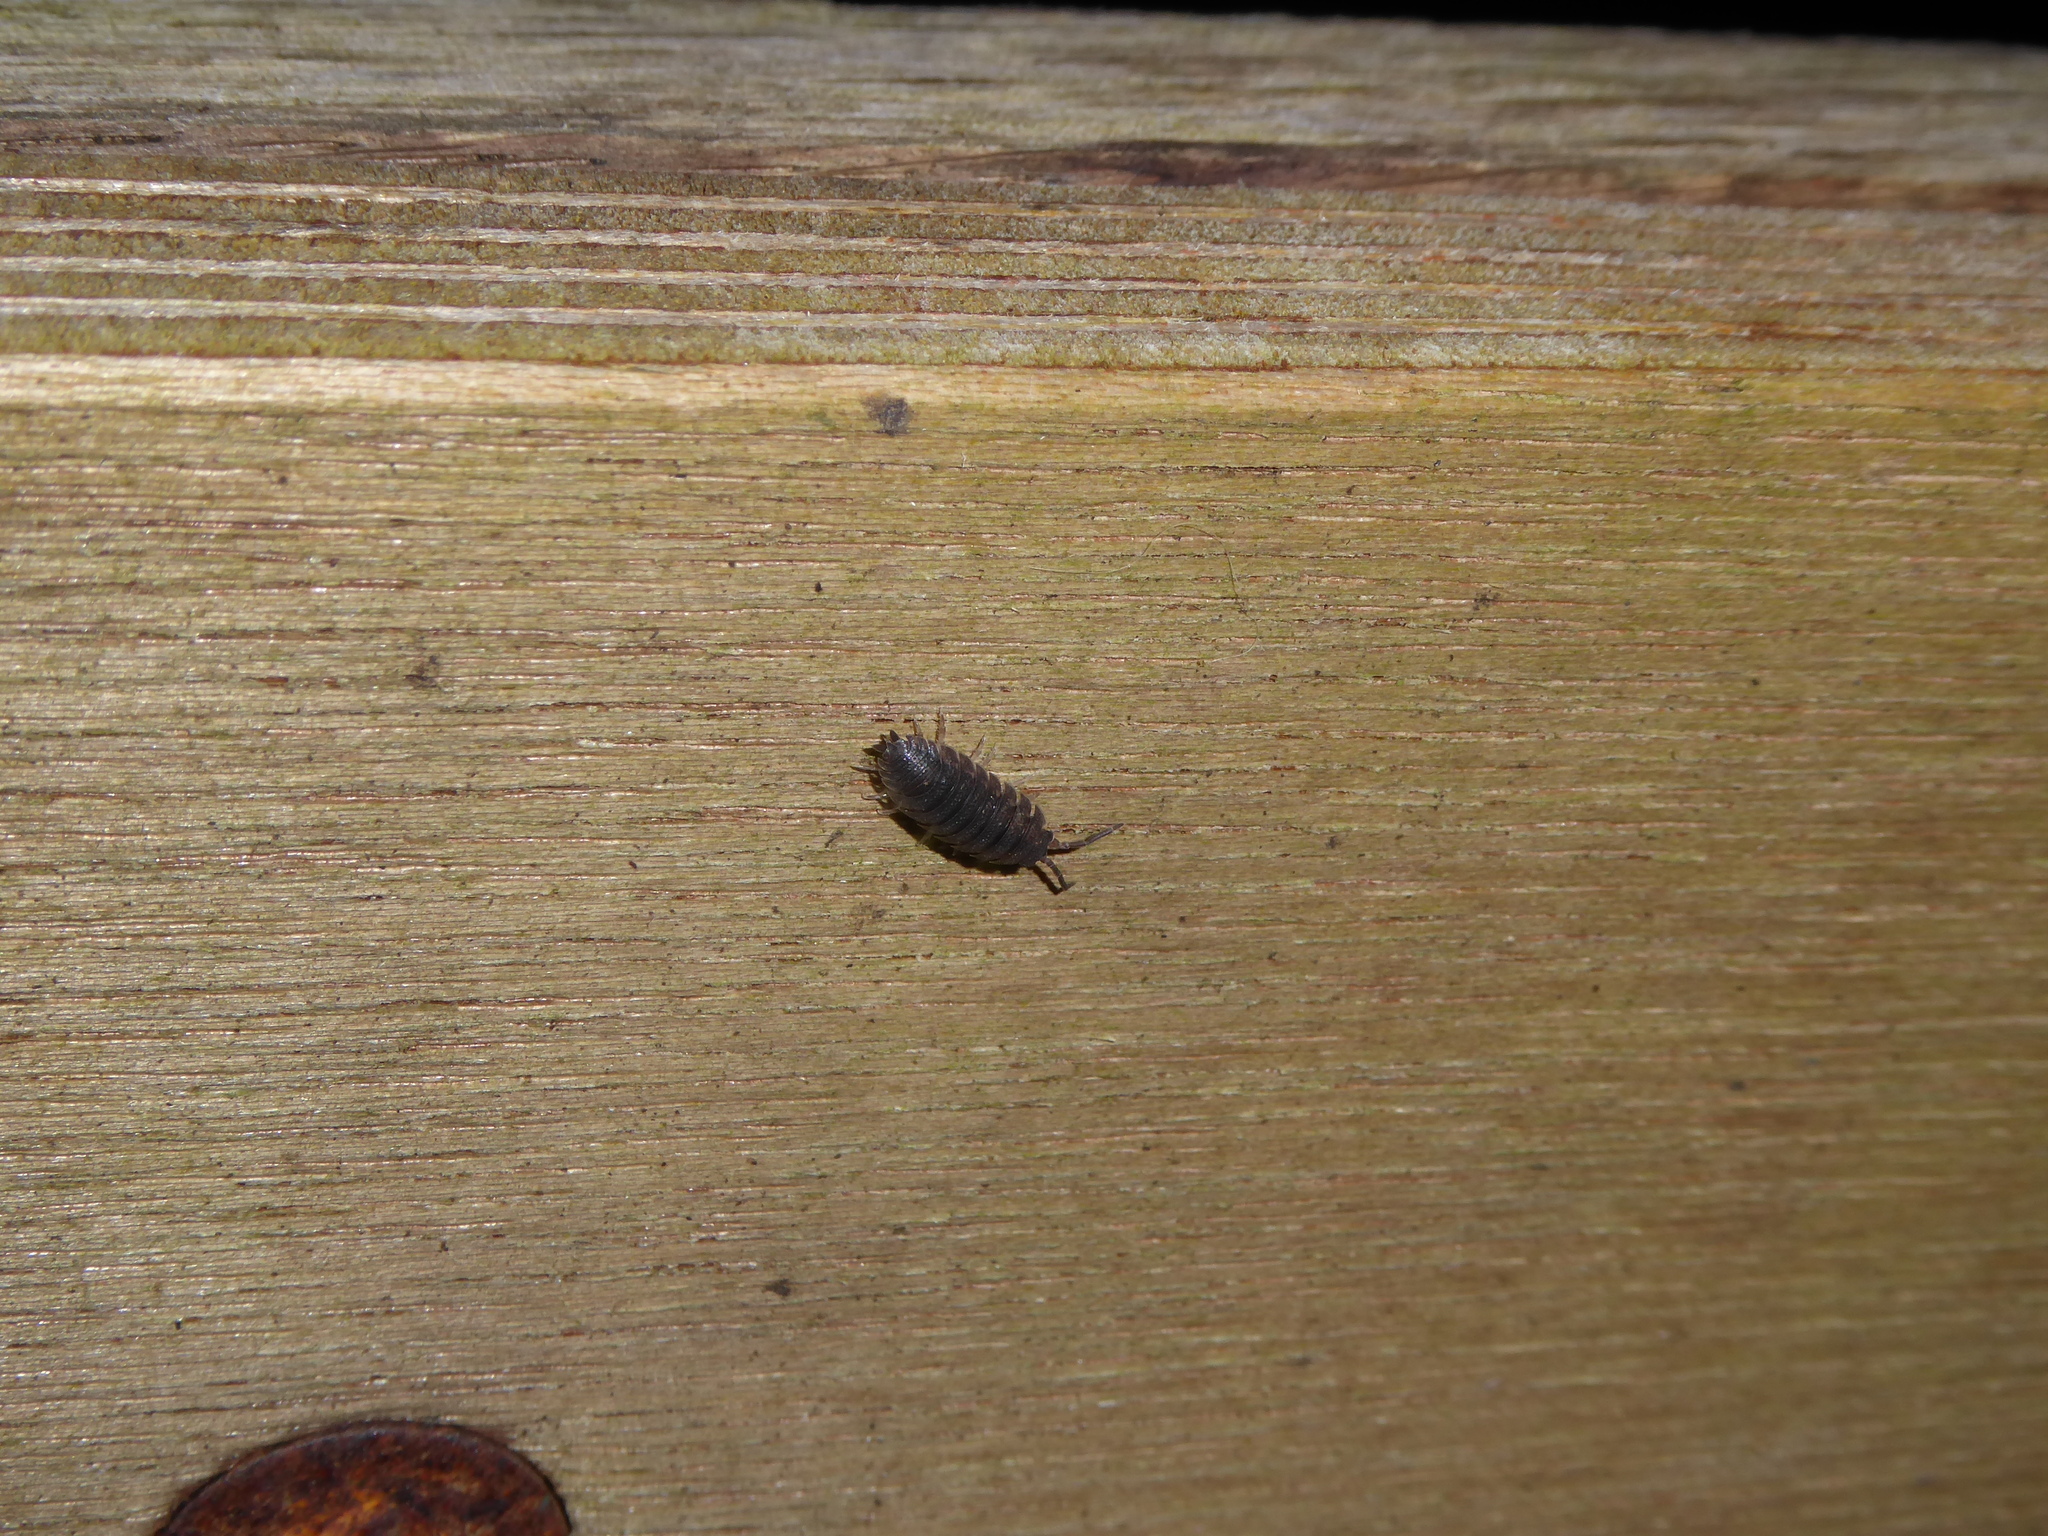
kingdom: Animalia
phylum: Arthropoda
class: Malacostraca
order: Isopoda
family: Porcellionidae
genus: Porcellio
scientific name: Porcellio scaber
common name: Common rough woodlouse
